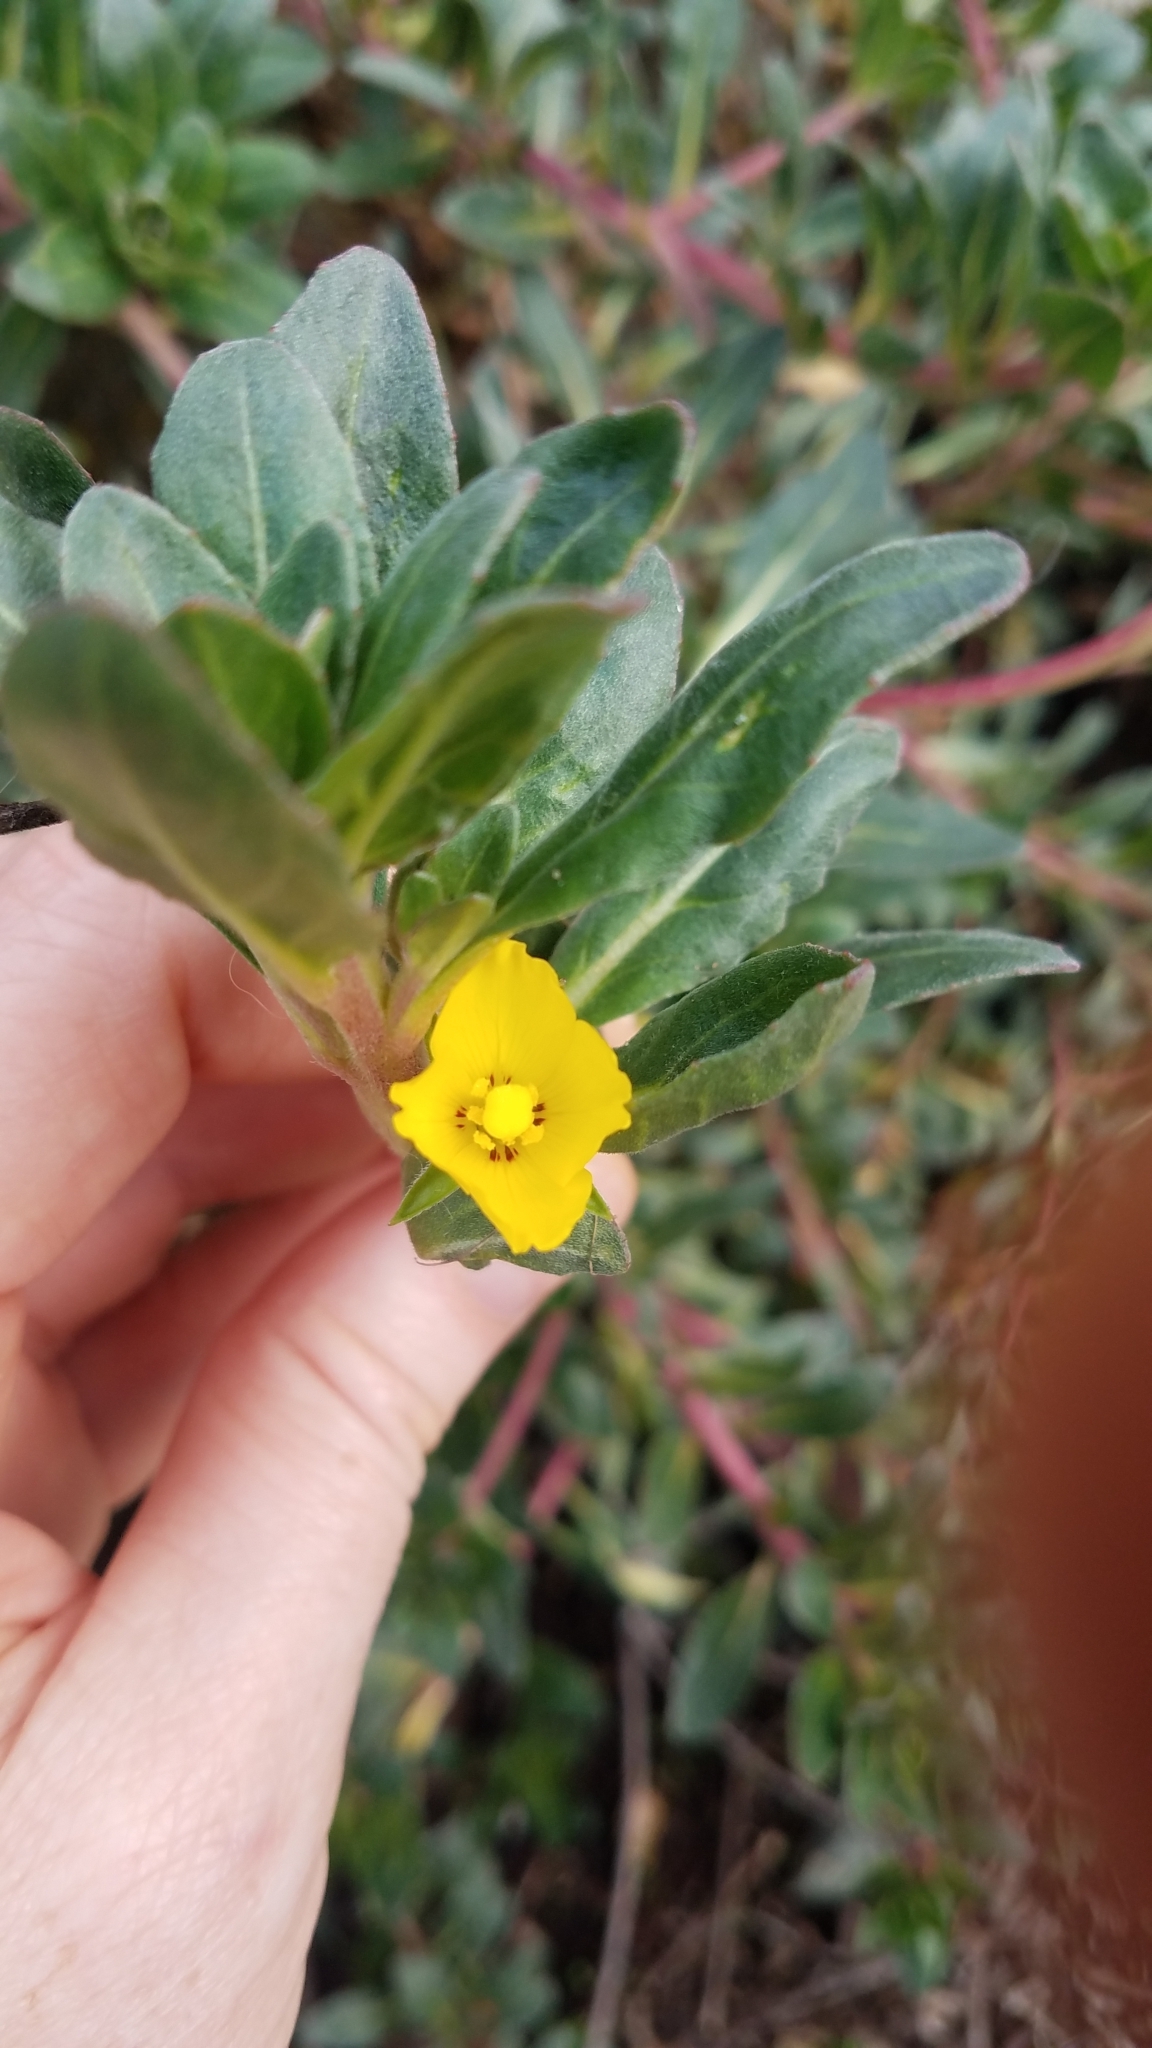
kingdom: Plantae
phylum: Tracheophyta
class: Magnoliopsida
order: Myrtales
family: Onagraceae
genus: Camissoniopsis
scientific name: Camissoniopsis cheiranthifolia
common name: Beach suncup
